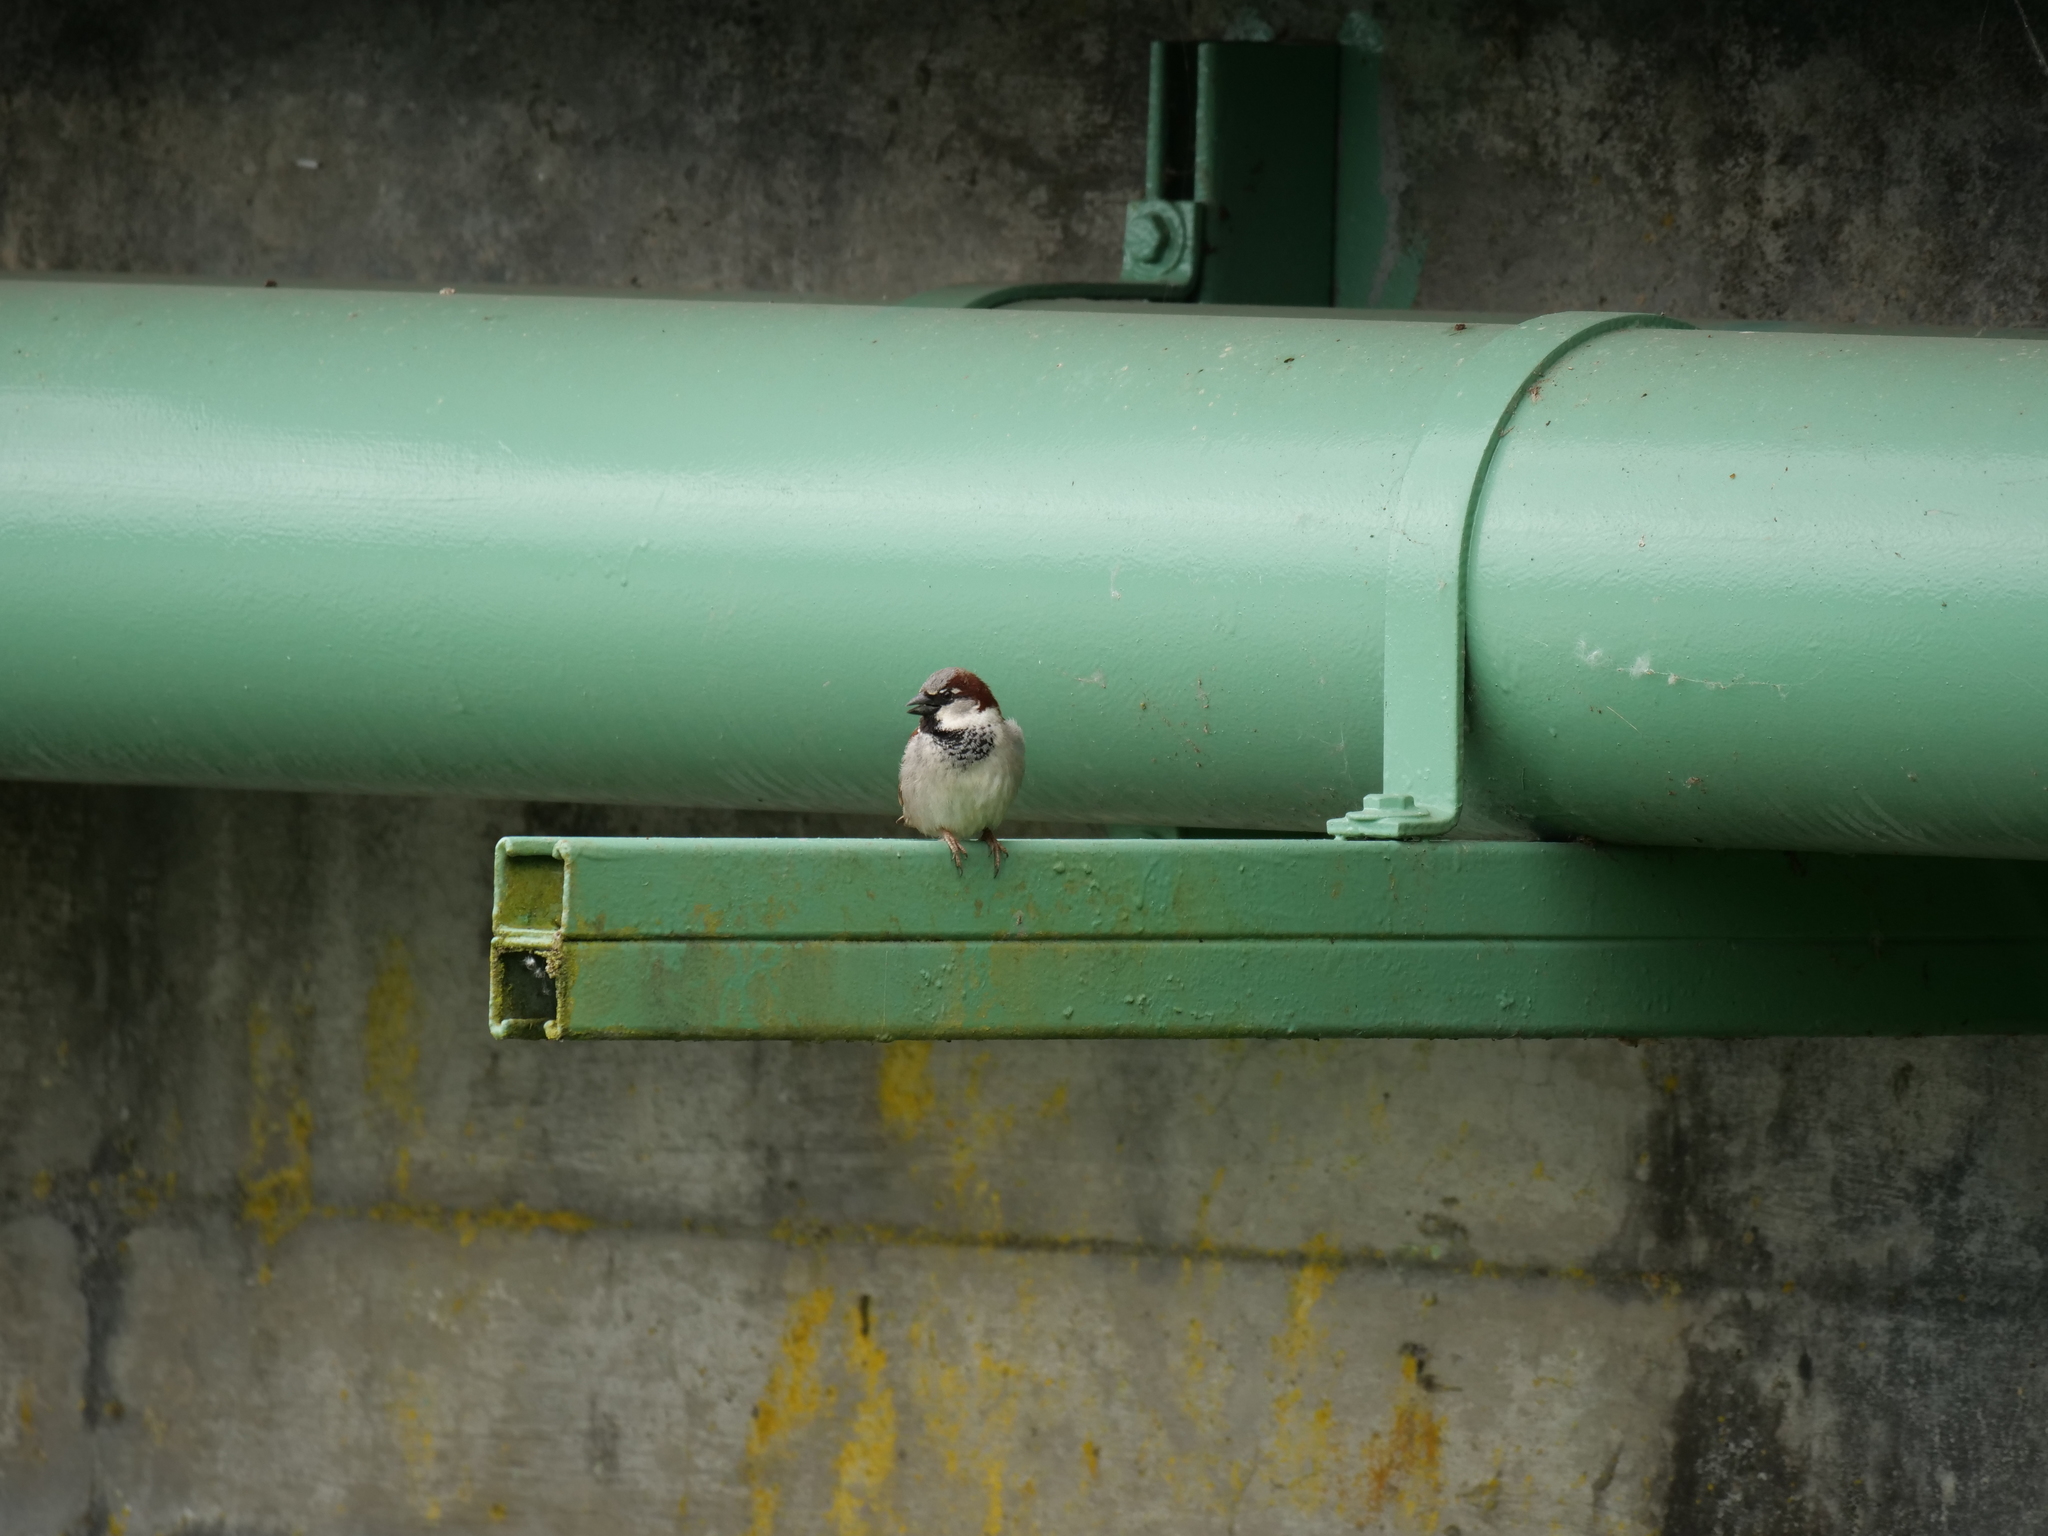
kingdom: Animalia
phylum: Chordata
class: Aves
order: Passeriformes
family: Passeridae
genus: Passer
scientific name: Passer domesticus
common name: House sparrow
